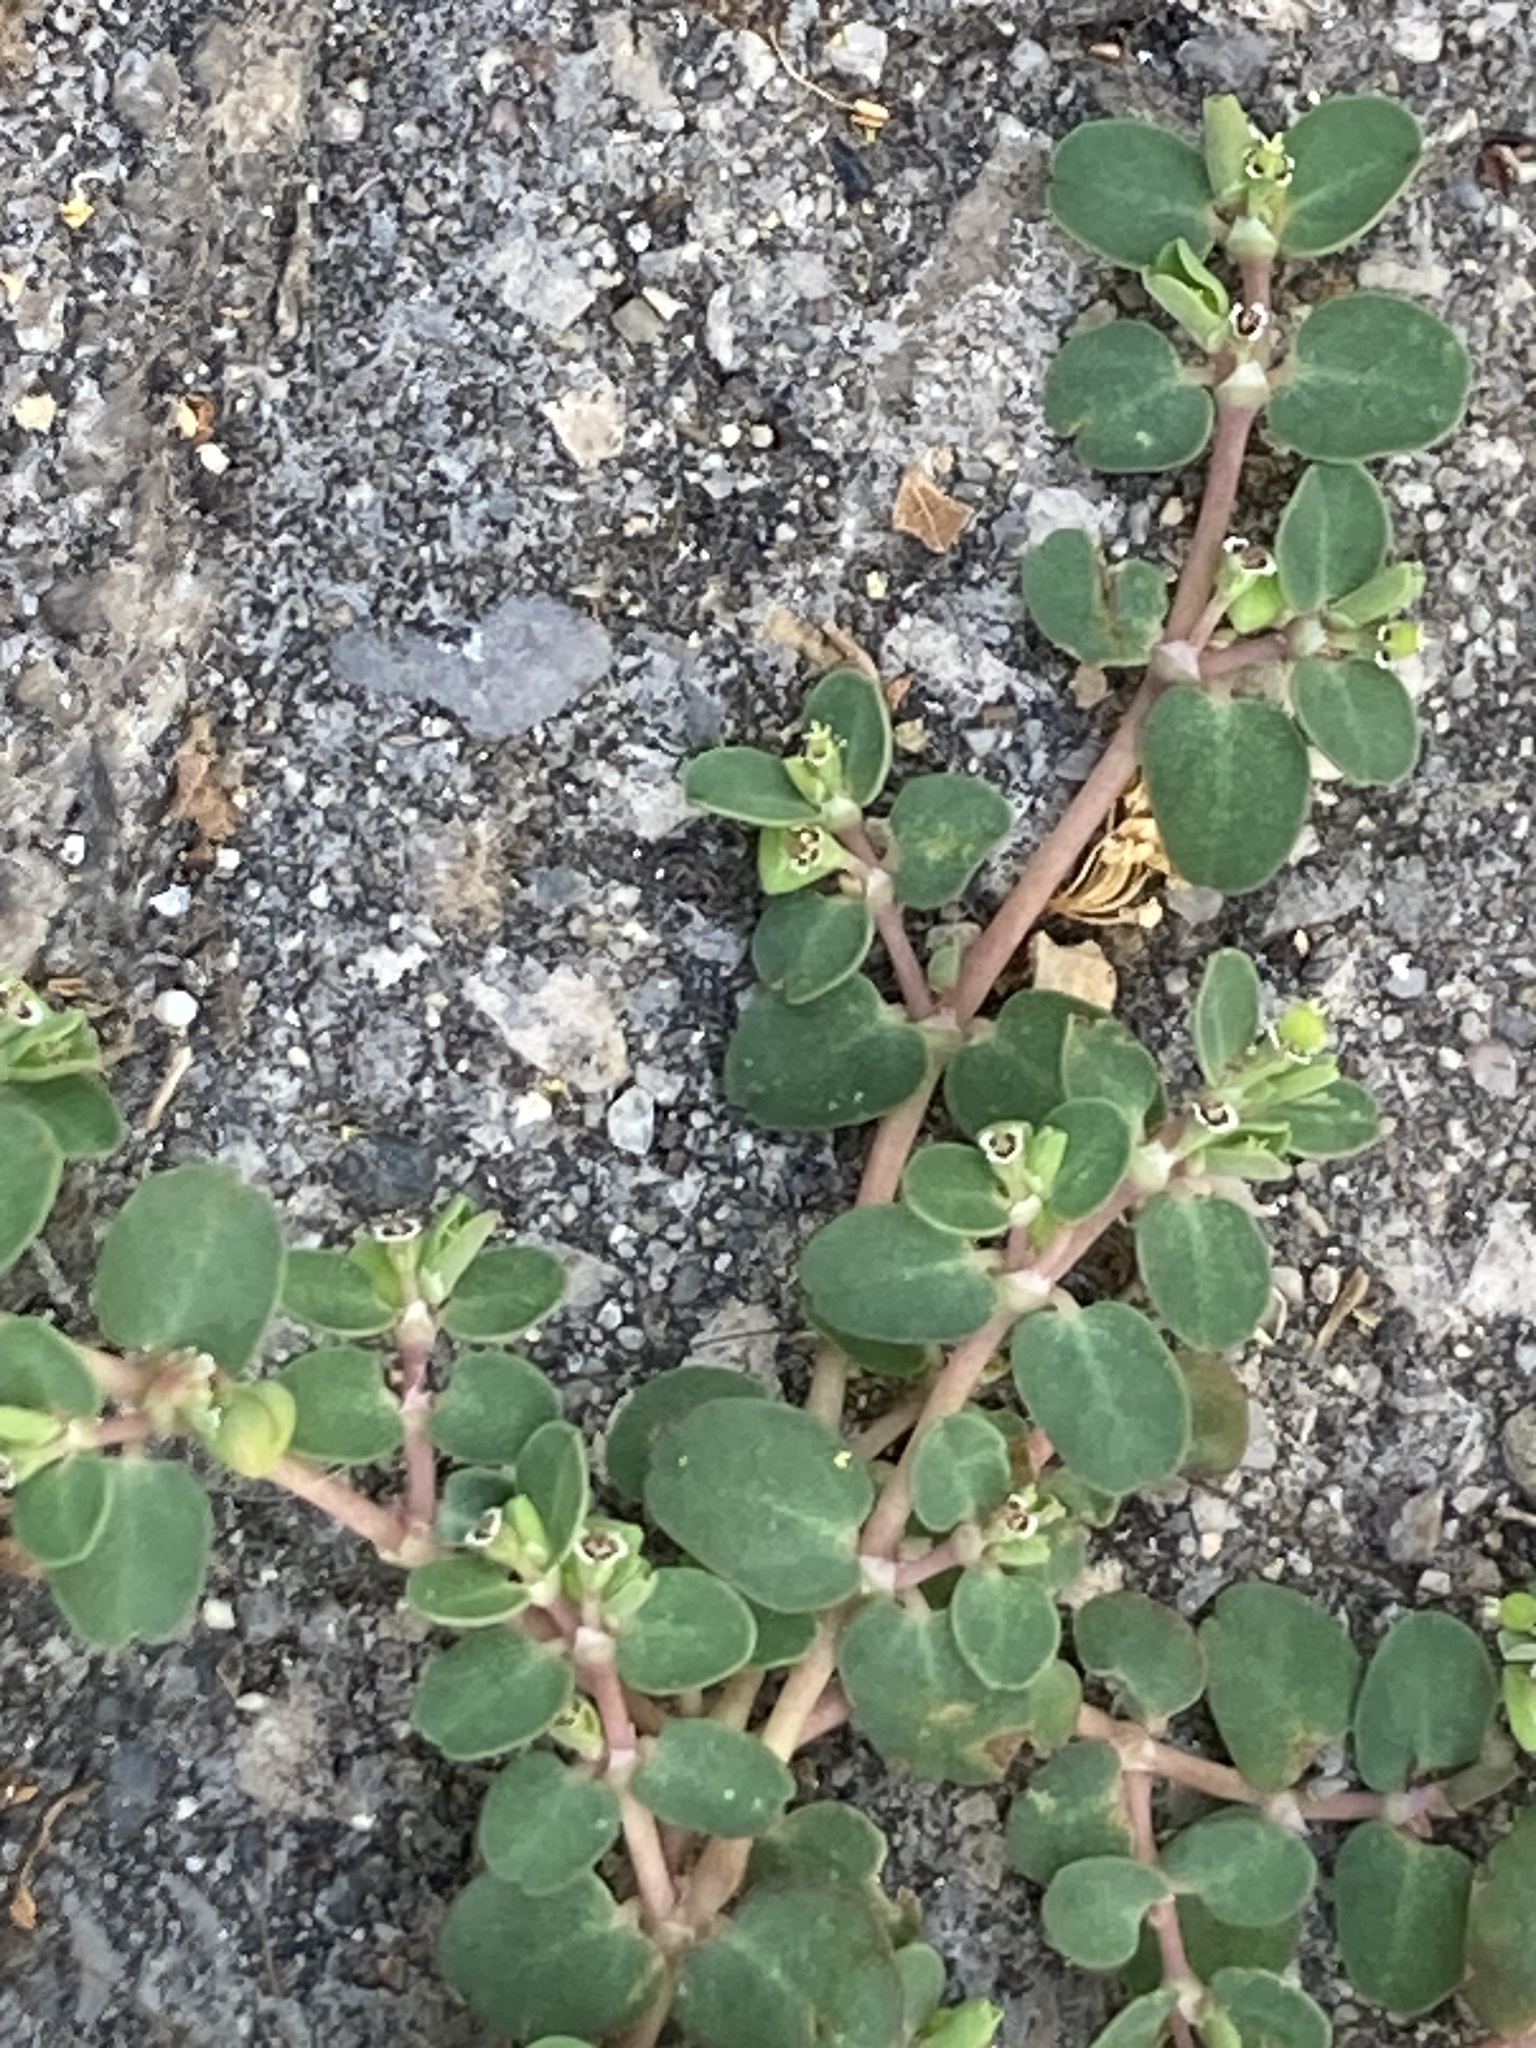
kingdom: Plantae
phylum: Tracheophyta
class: Magnoliopsida
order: Malpighiales
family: Euphorbiaceae
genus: Euphorbia
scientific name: Euphorbia serpens
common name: Matted sandmat
